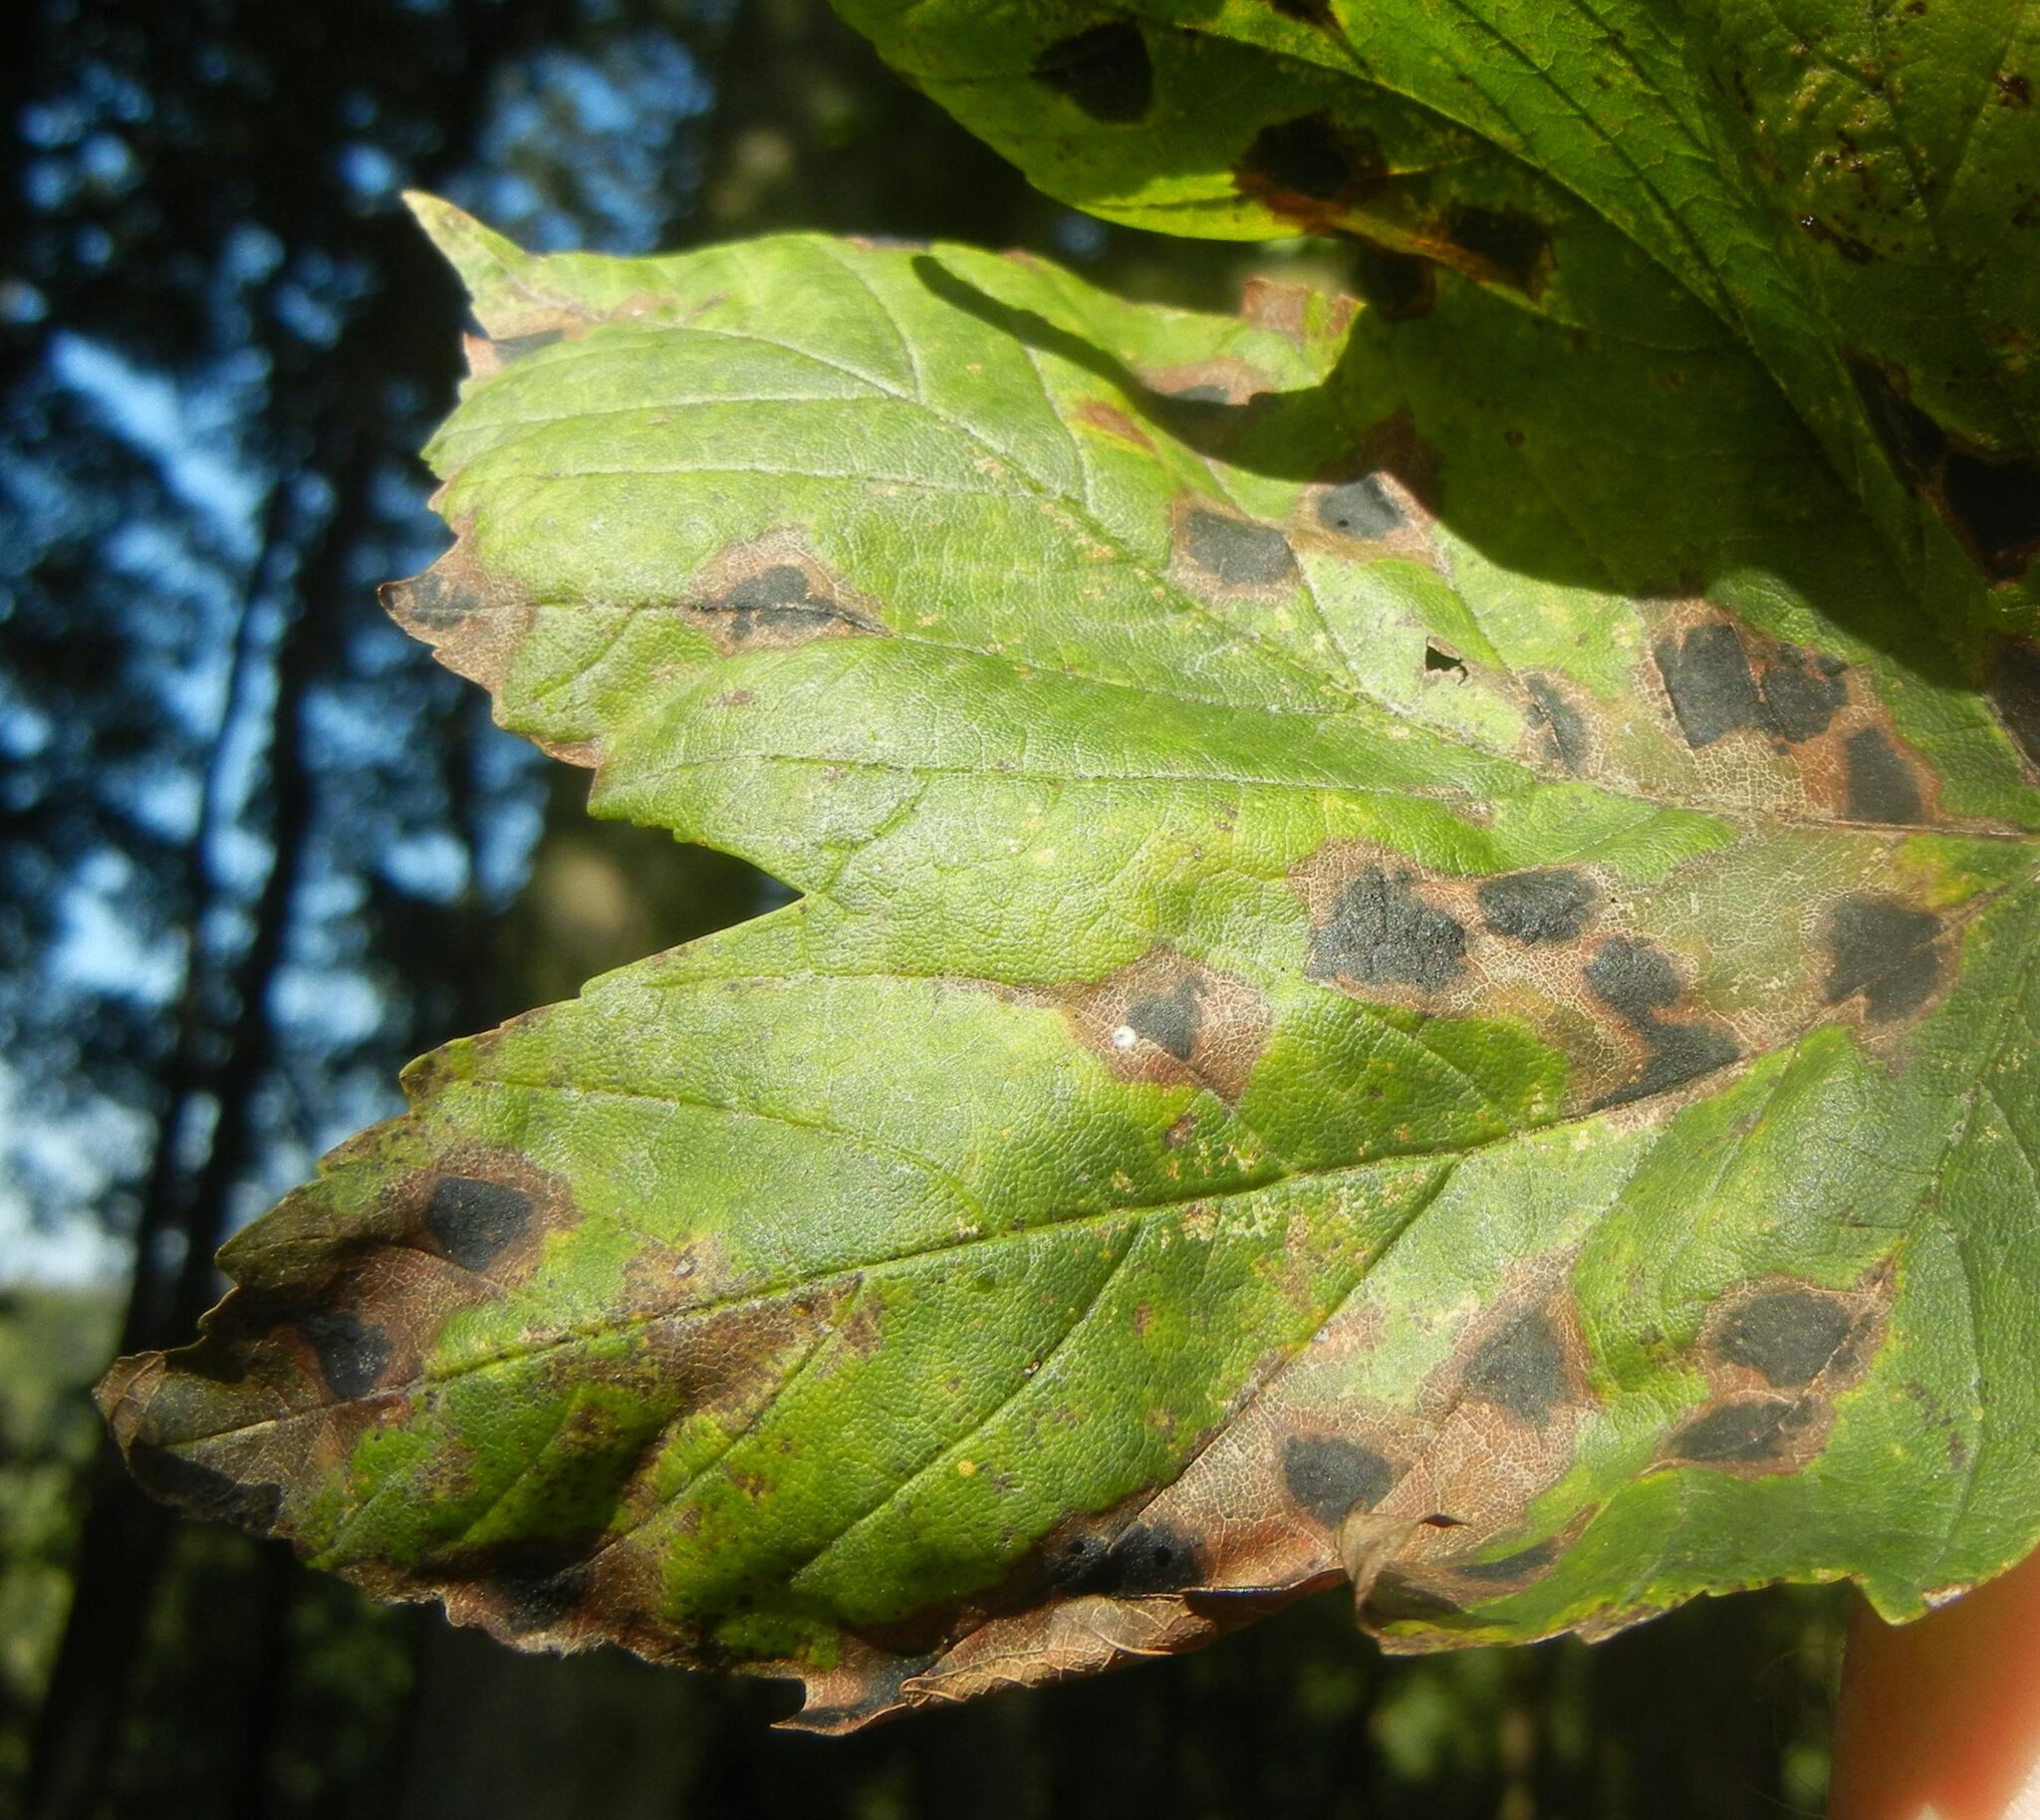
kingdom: Fungi
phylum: Ascomycota
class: Leotiomycetes
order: Rhytismatales
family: Rhytismataceae
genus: Rhytisma
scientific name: Rhytisma acerinum
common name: European tar spot
